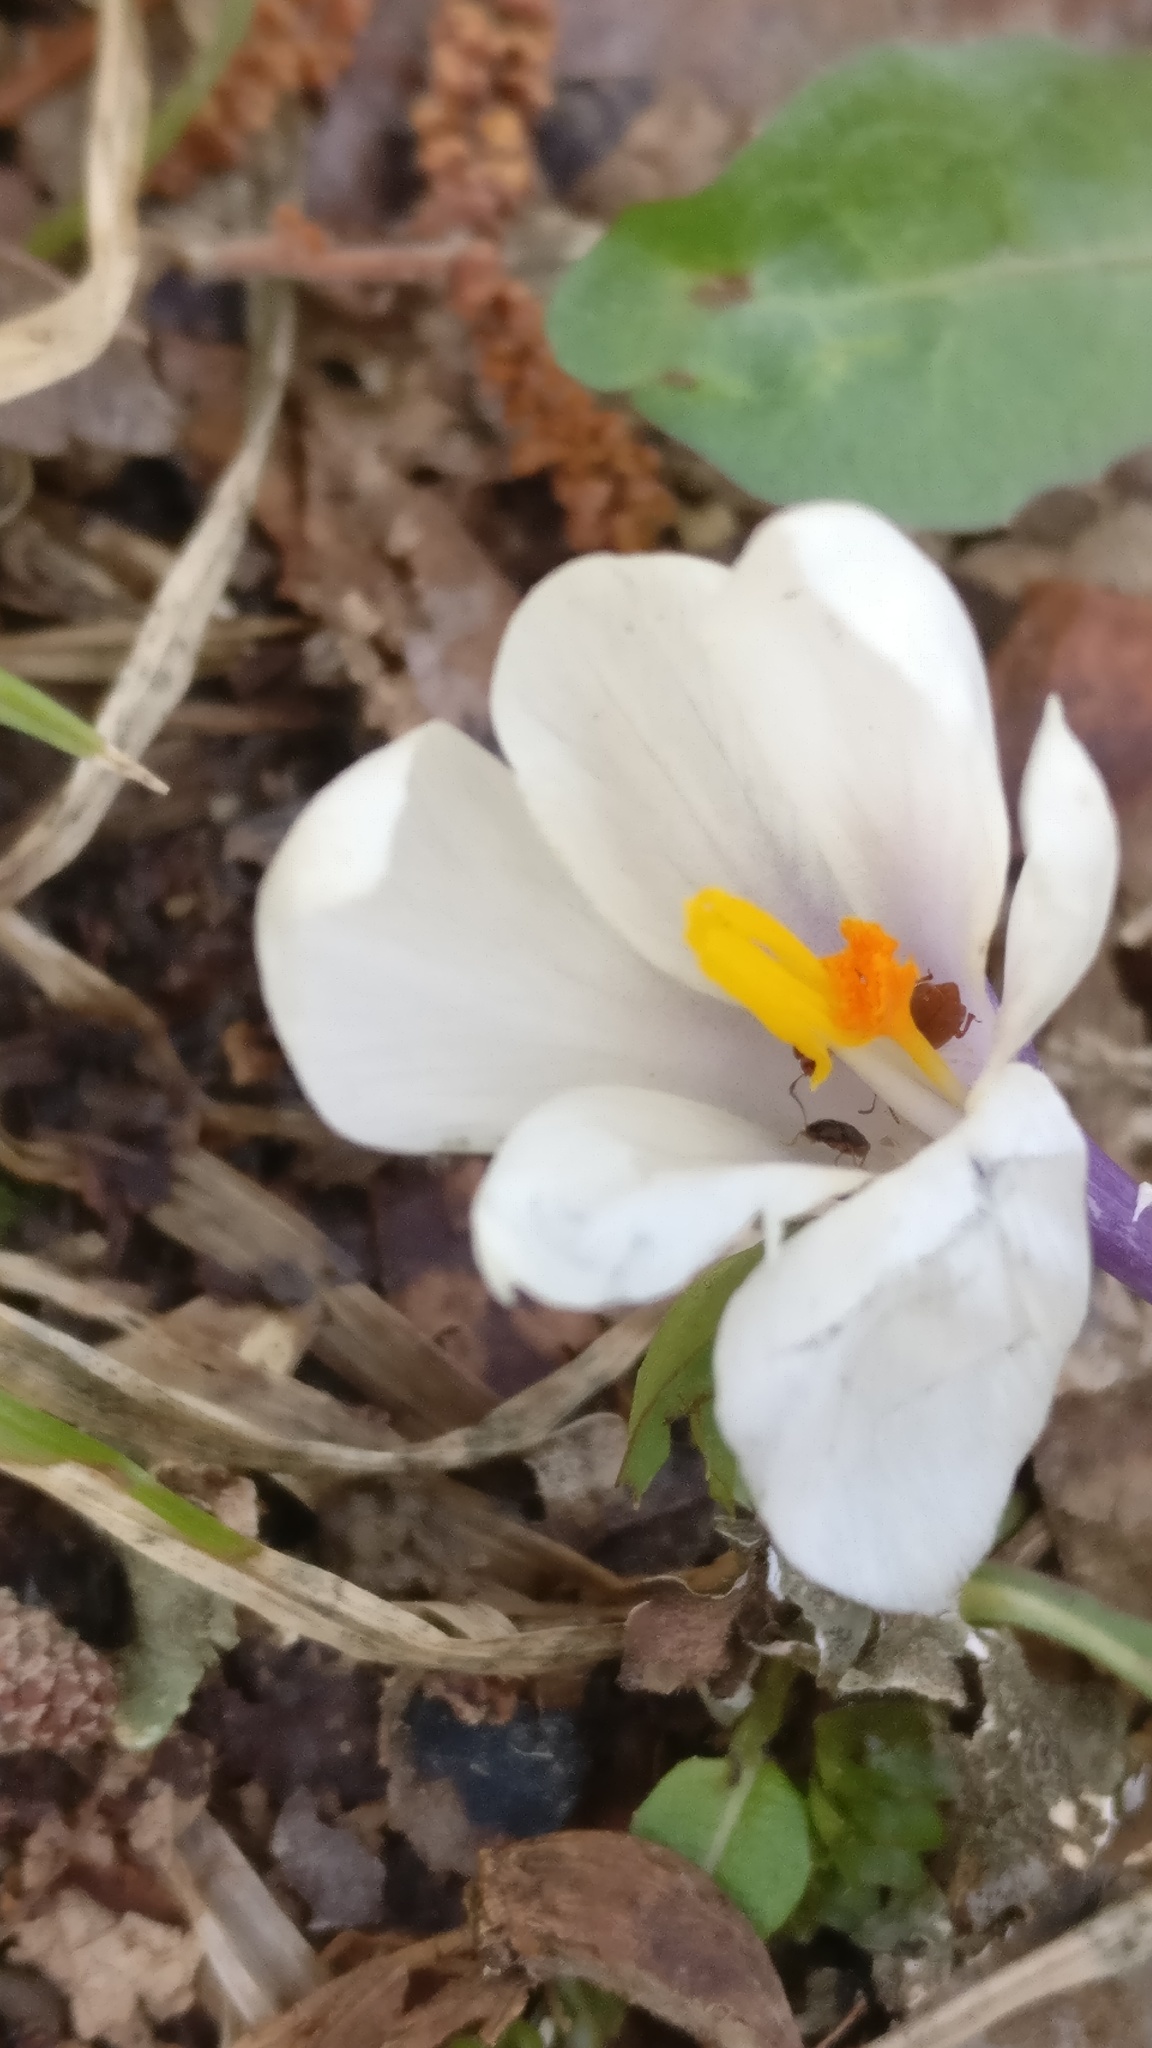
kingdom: Plantae
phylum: Tracheophyta
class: Liliopsida
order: Asparagales
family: Iridaceae
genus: Crocus
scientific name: Crocus vernus
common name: Spring crocus
